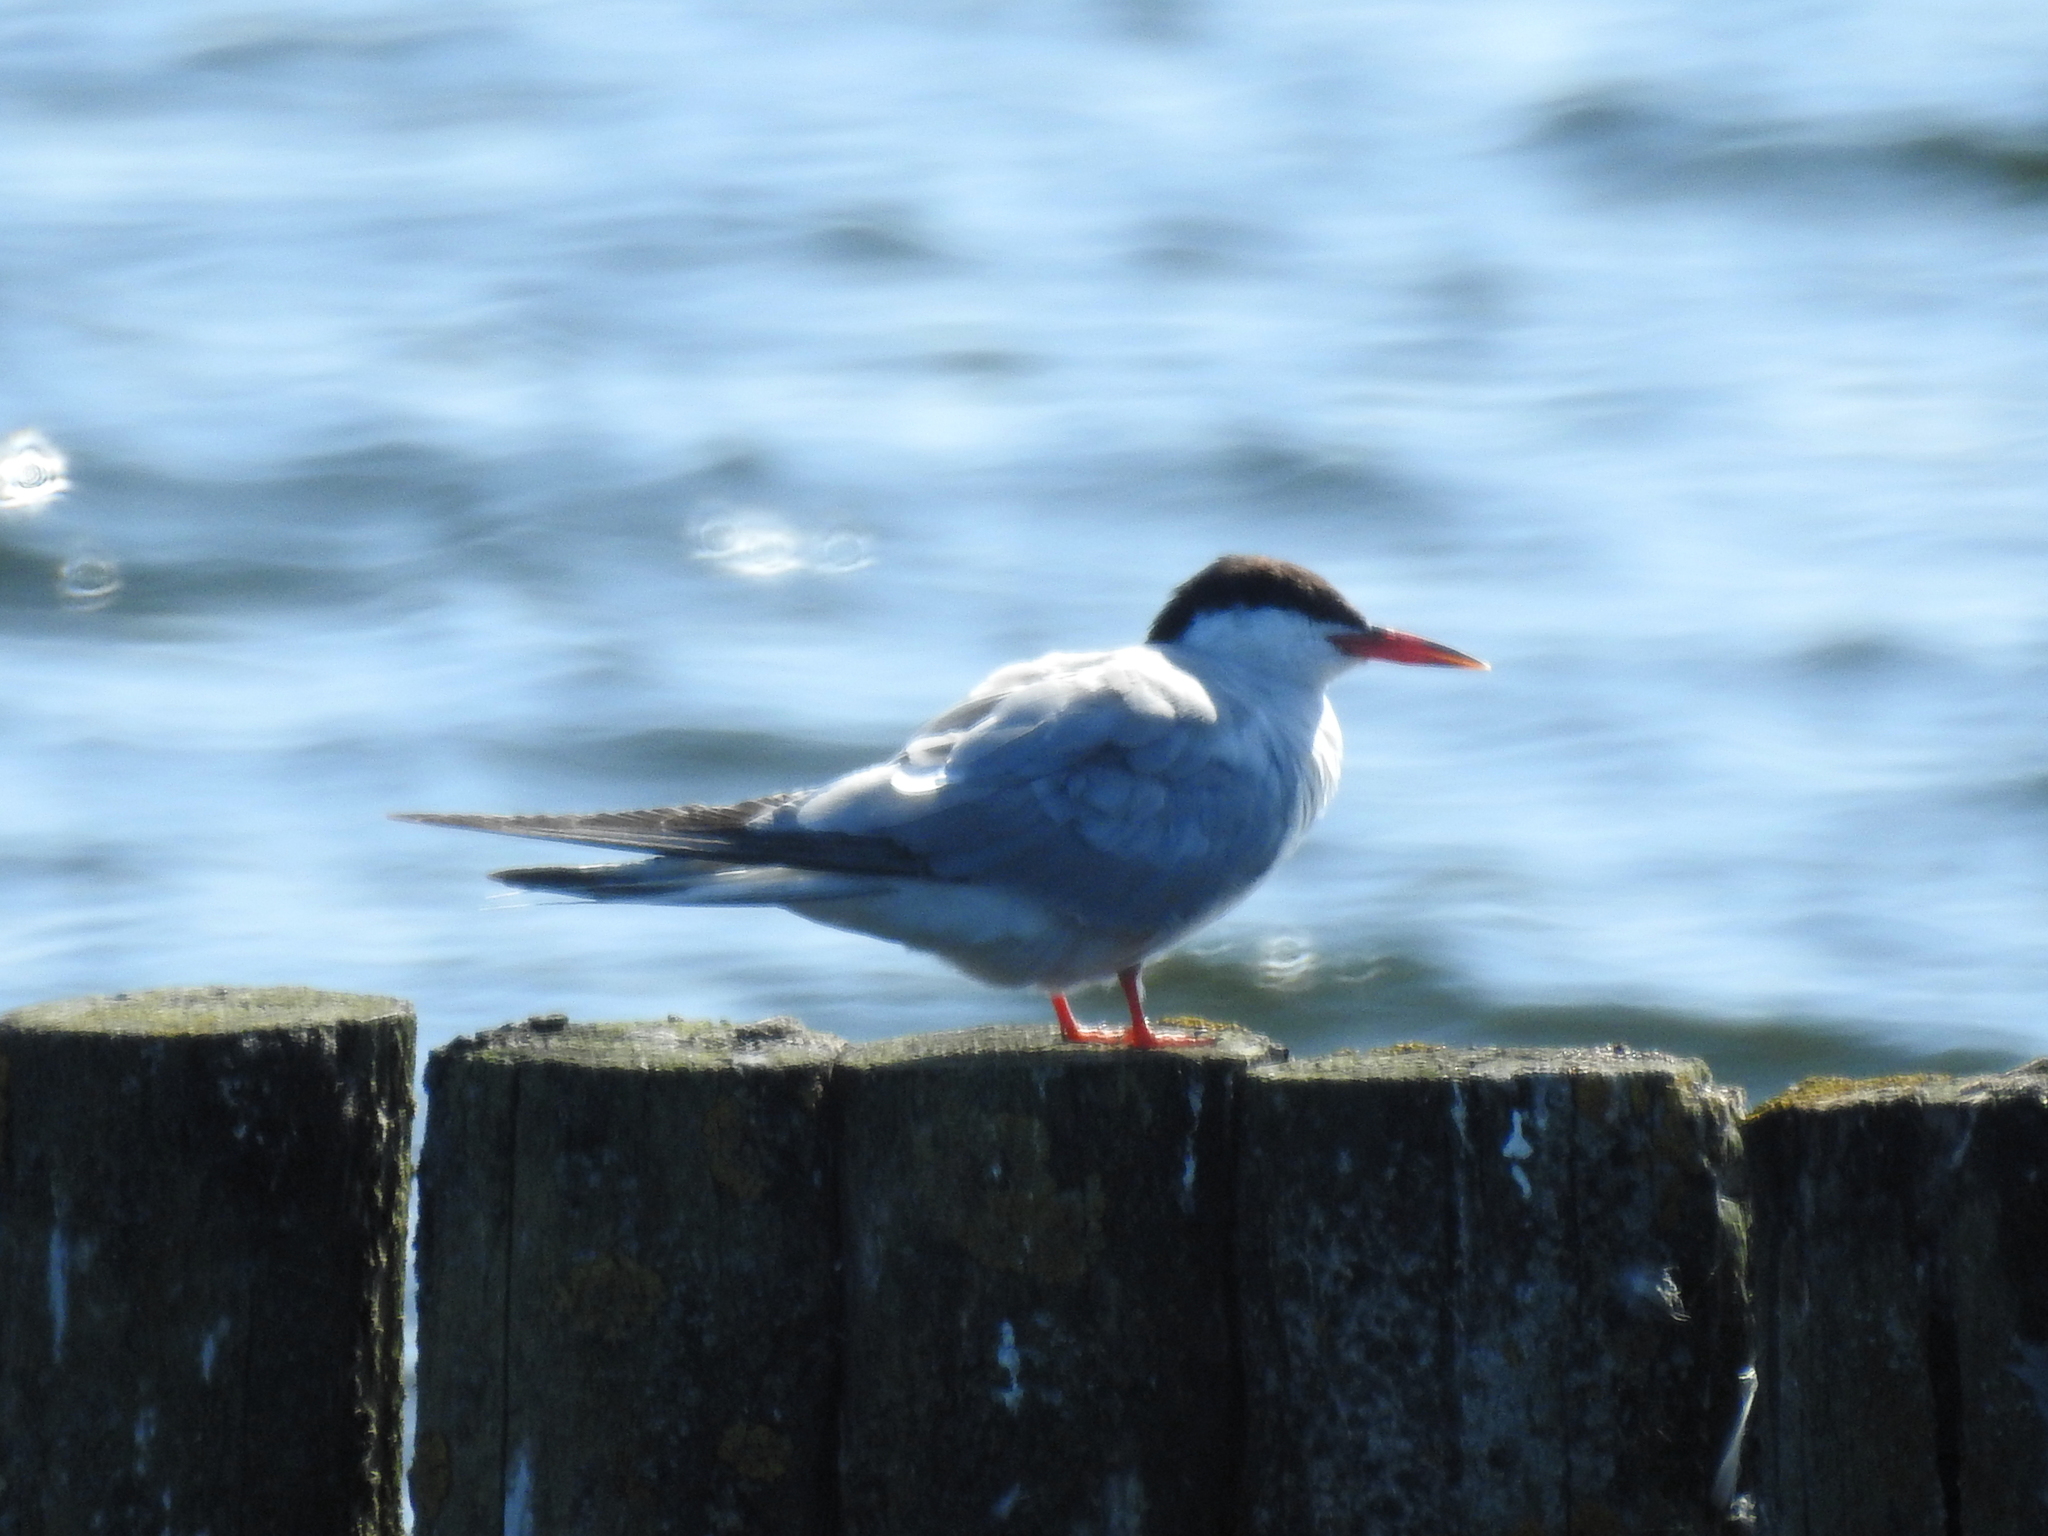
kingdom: Animalia
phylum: Chordata
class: Aves
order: Charadriiformes
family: Laridae
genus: Sterna
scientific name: Sterna hirundo
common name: Common tern
